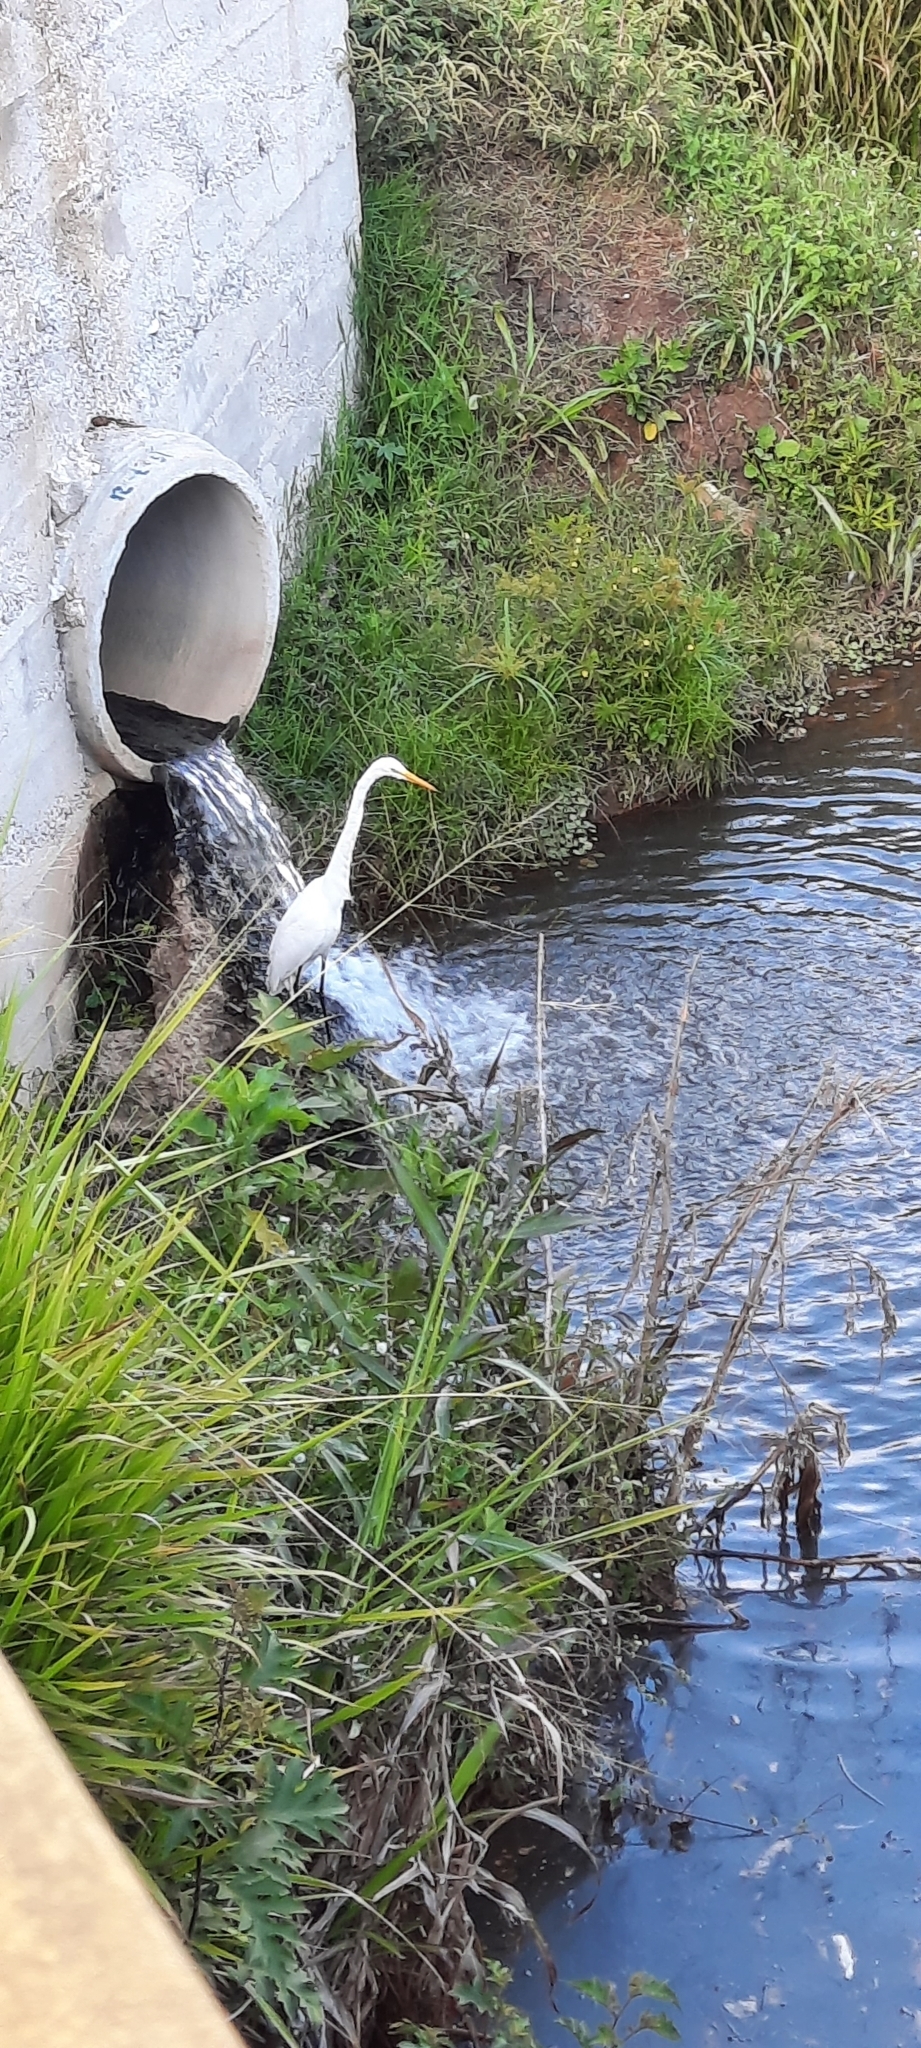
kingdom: Animalia
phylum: Chordata
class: Aves
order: Pelecaniformes
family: Ardeidae
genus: Ardea
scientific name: Ardea alba
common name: Great egret
